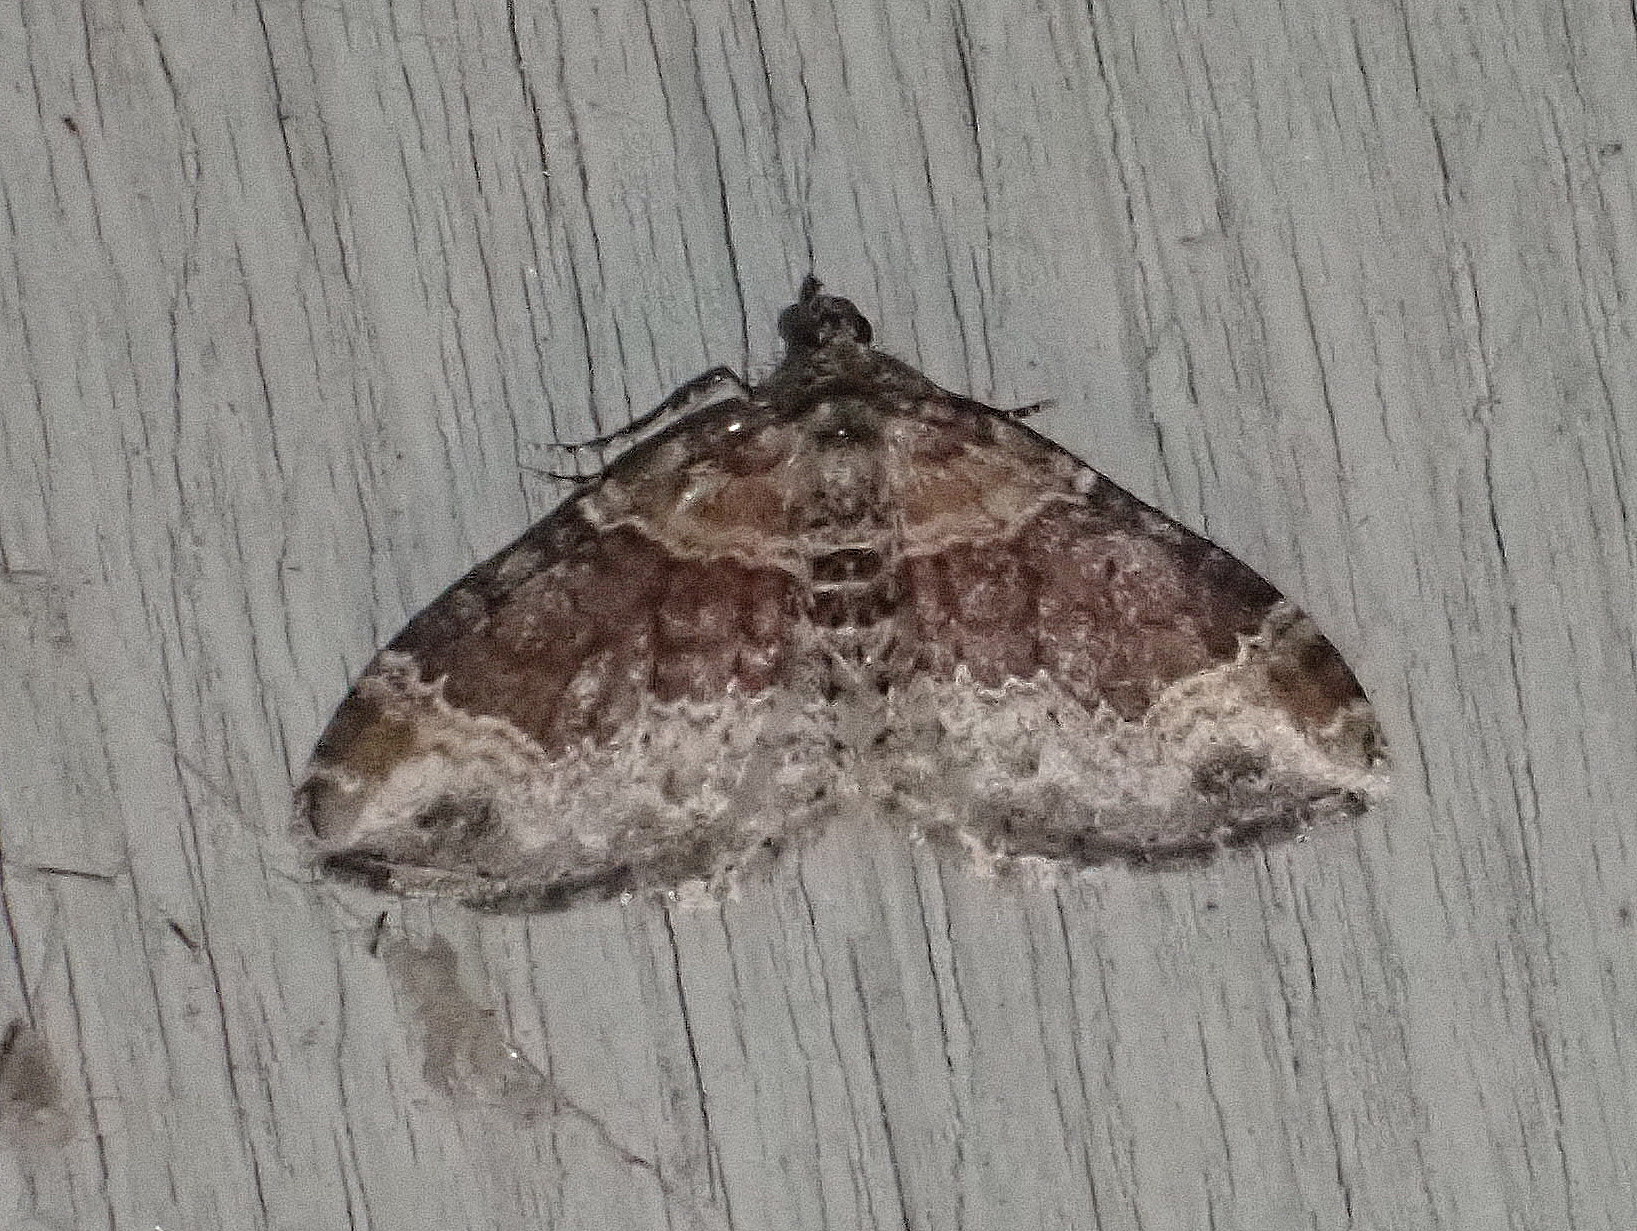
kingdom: Animalia
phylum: Arthropoda
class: Insecta
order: Lepidoptera
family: Geometridae
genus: Xanthorhoe
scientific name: Xanthorhoe ferrugata
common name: Dark-barred twin-spot carpet
